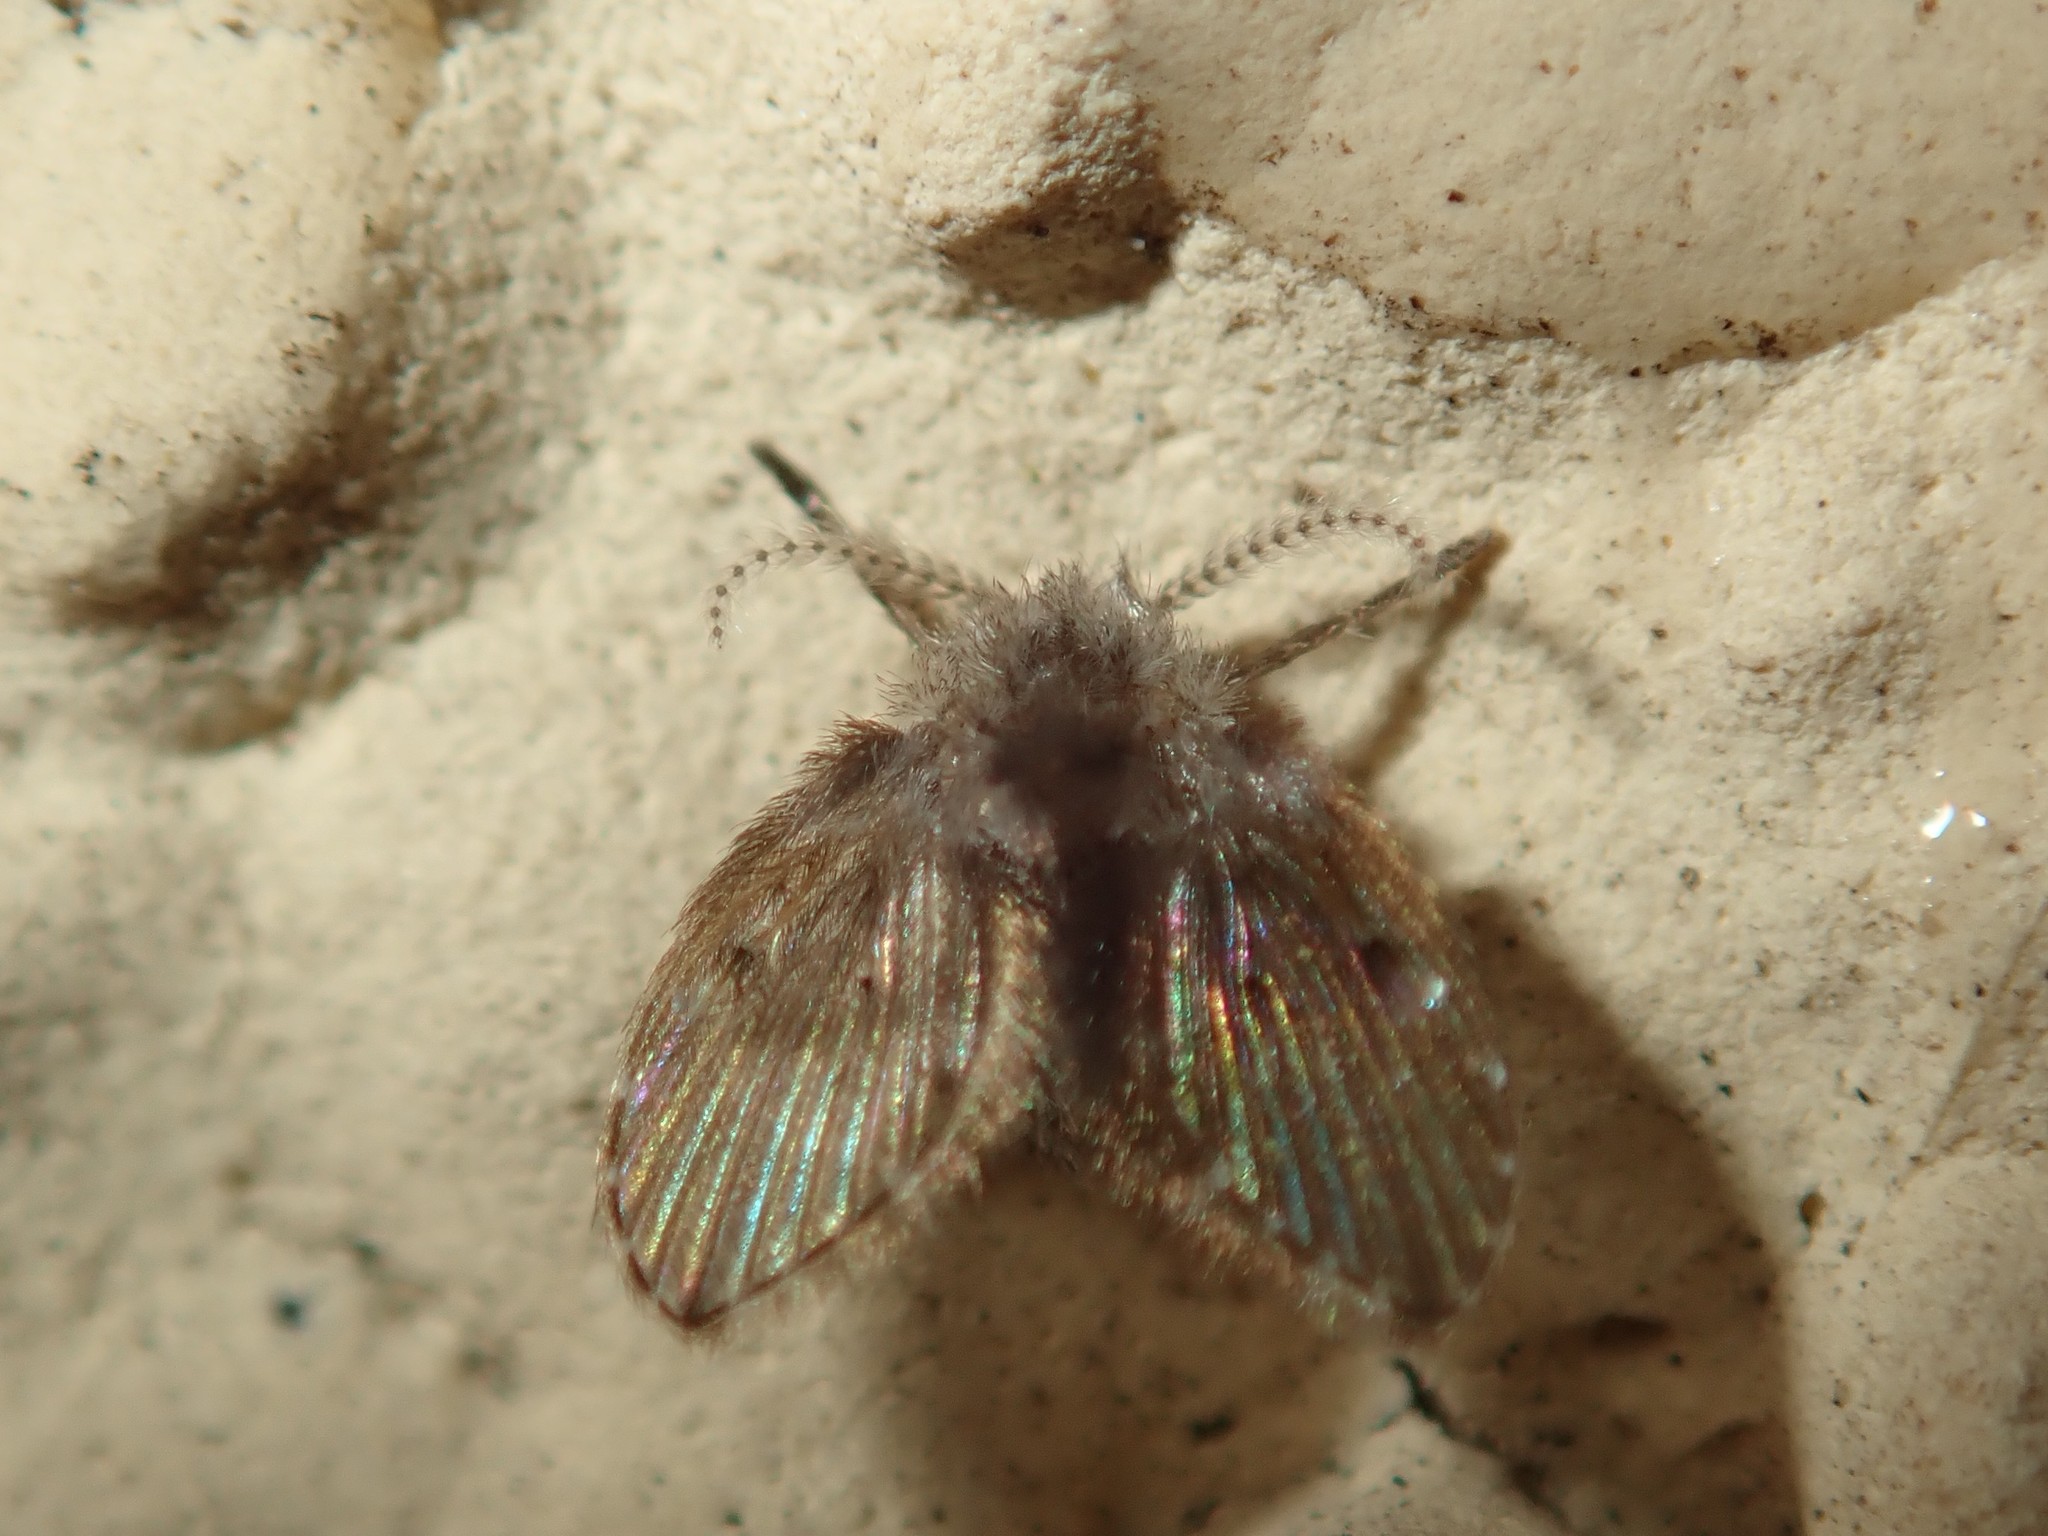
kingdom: Animalia
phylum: Arthropoda
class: Insecta
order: Diptera
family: Psychodidae
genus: Clogmia
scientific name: Clogmia albipunctatus
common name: White-spotted moth fly
